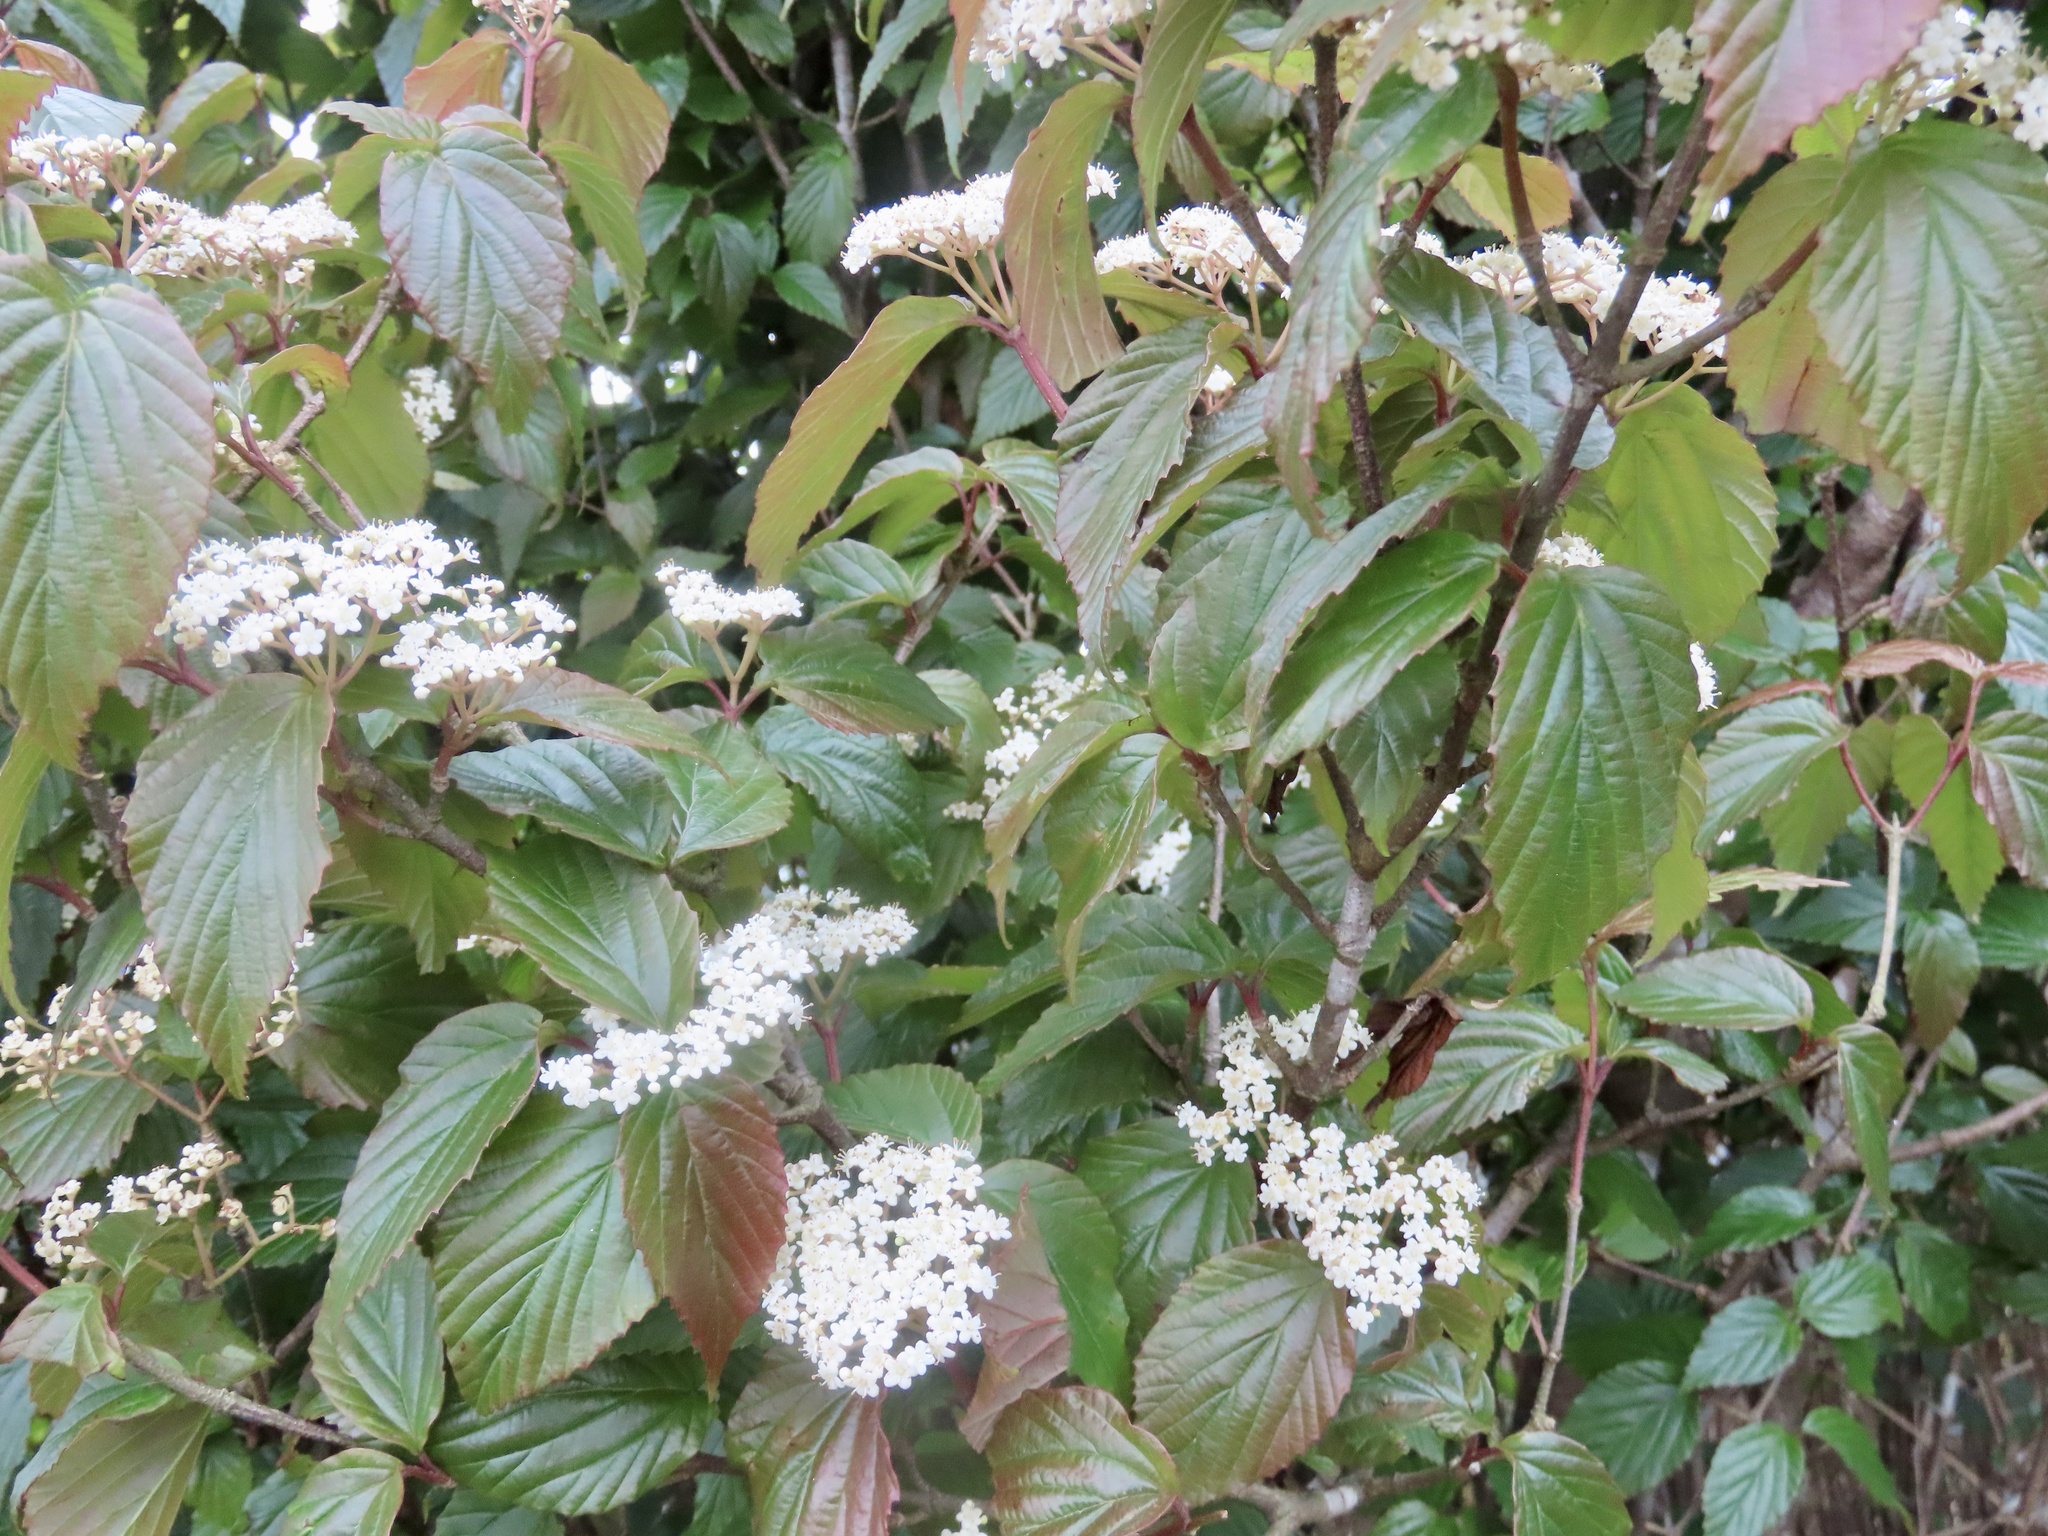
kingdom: Plantae
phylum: Tracheophyta
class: Magnoliopsida
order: Dipsacales
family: Viburnaceae
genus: Viburnum
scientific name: Viburnum luzonicum
